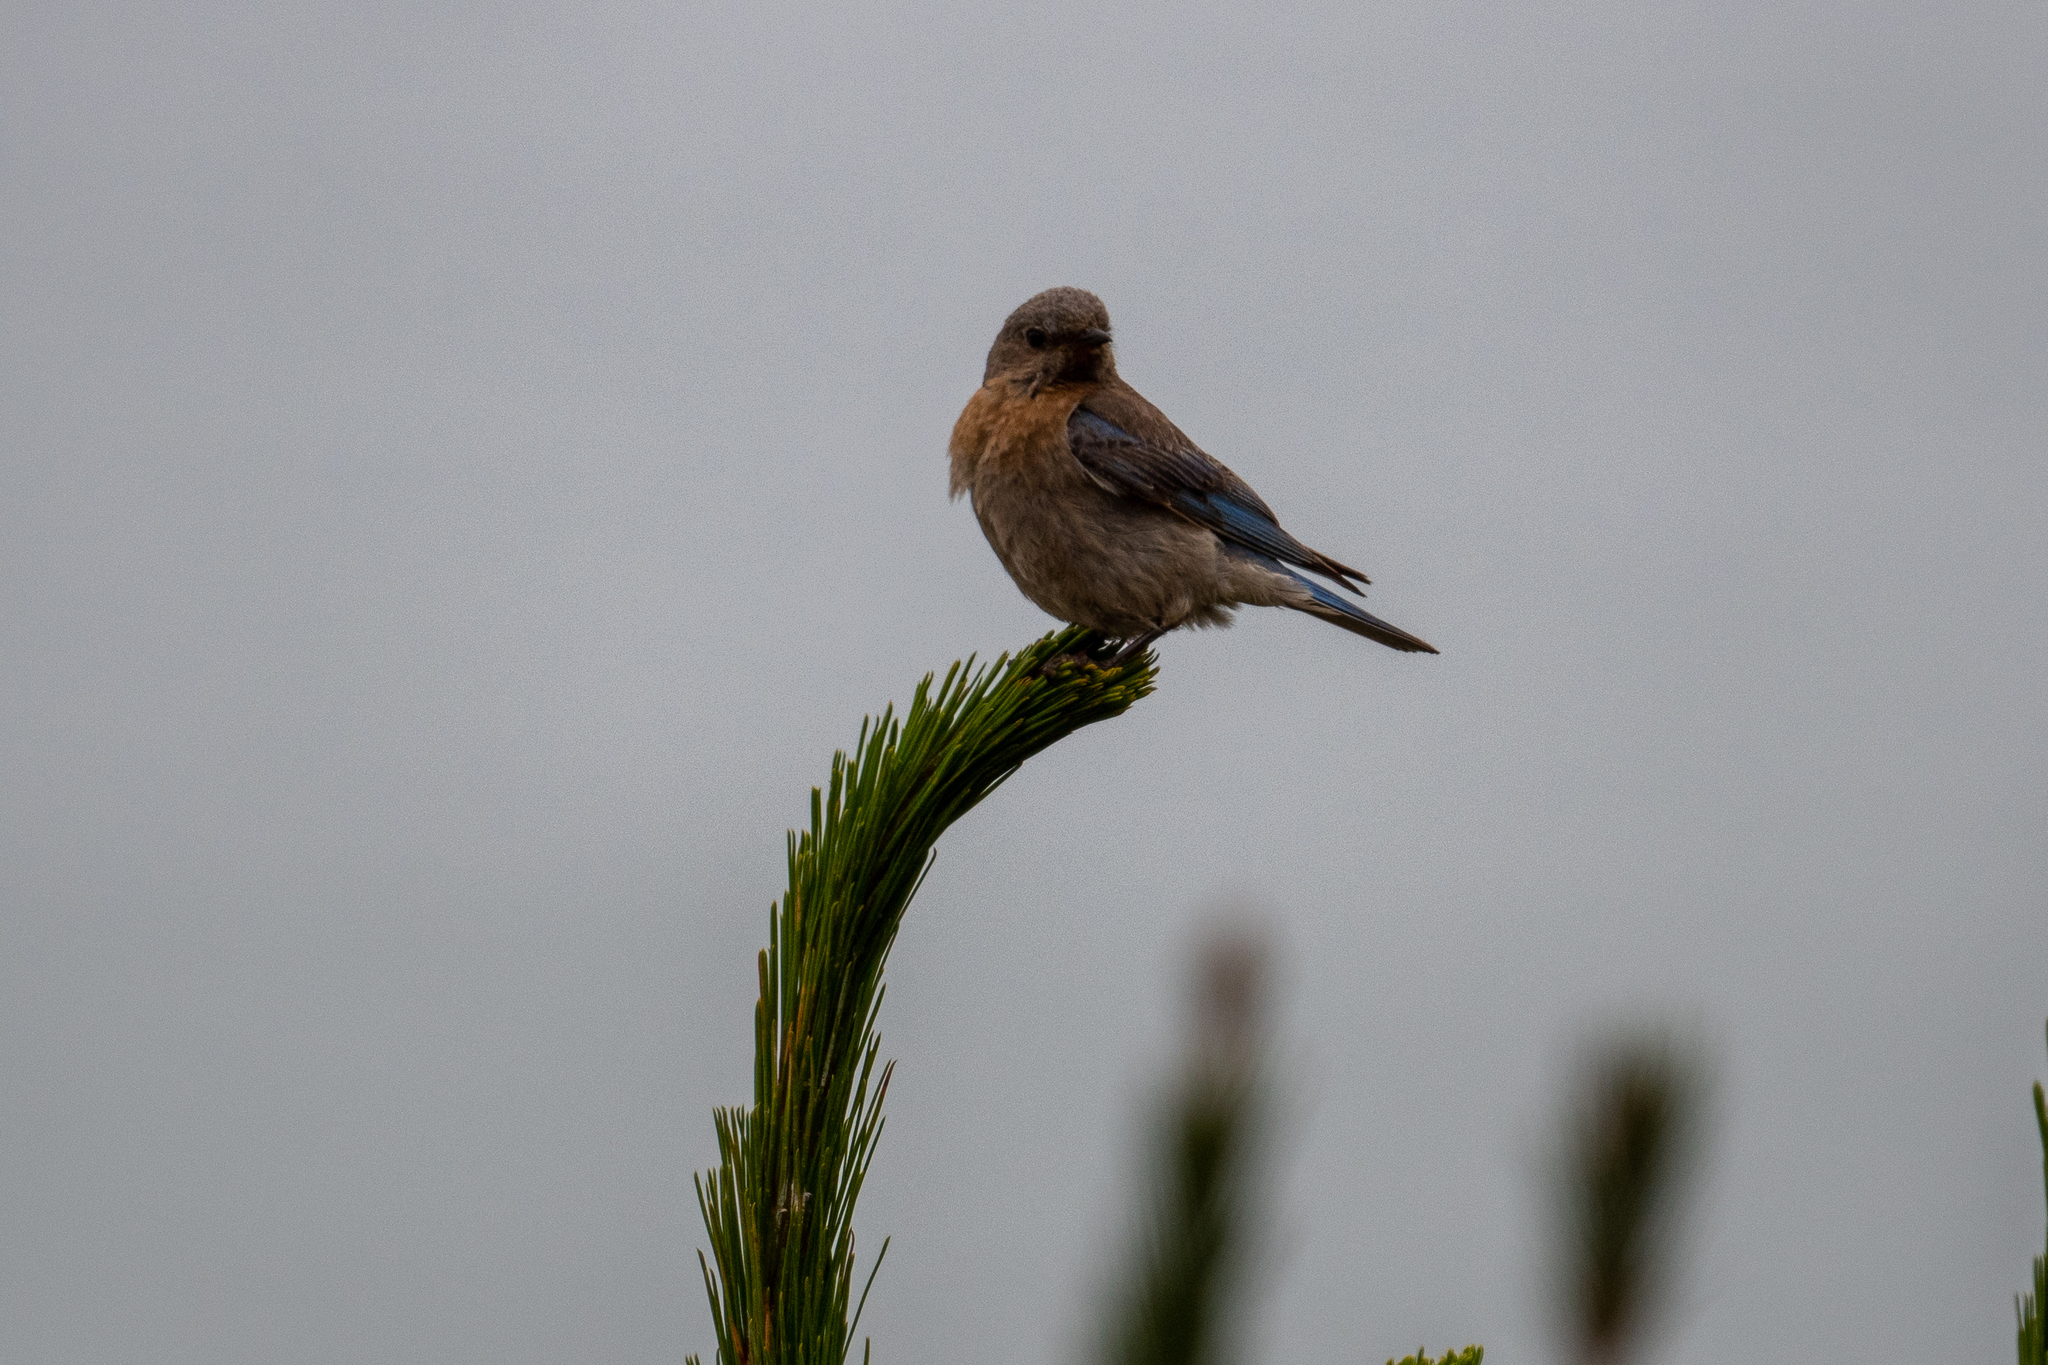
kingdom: Animalia
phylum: Chordata
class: Aves
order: Passeriformes
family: Turdidae
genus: Sialia
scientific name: Sialia mexicana
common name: Western bluebird
